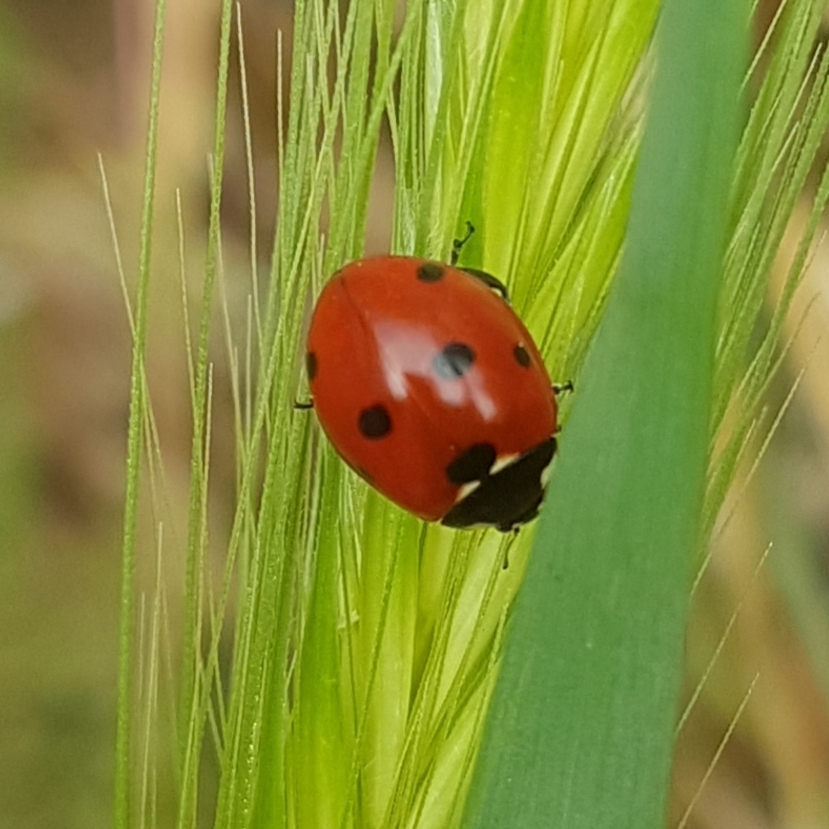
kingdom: Animalia
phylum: Arthropoda
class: Insecta
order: Coleoptera
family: Coccinellidae
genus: Coccinella
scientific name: Coccinella septempunctata
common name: Sevenspotted lady beetle
